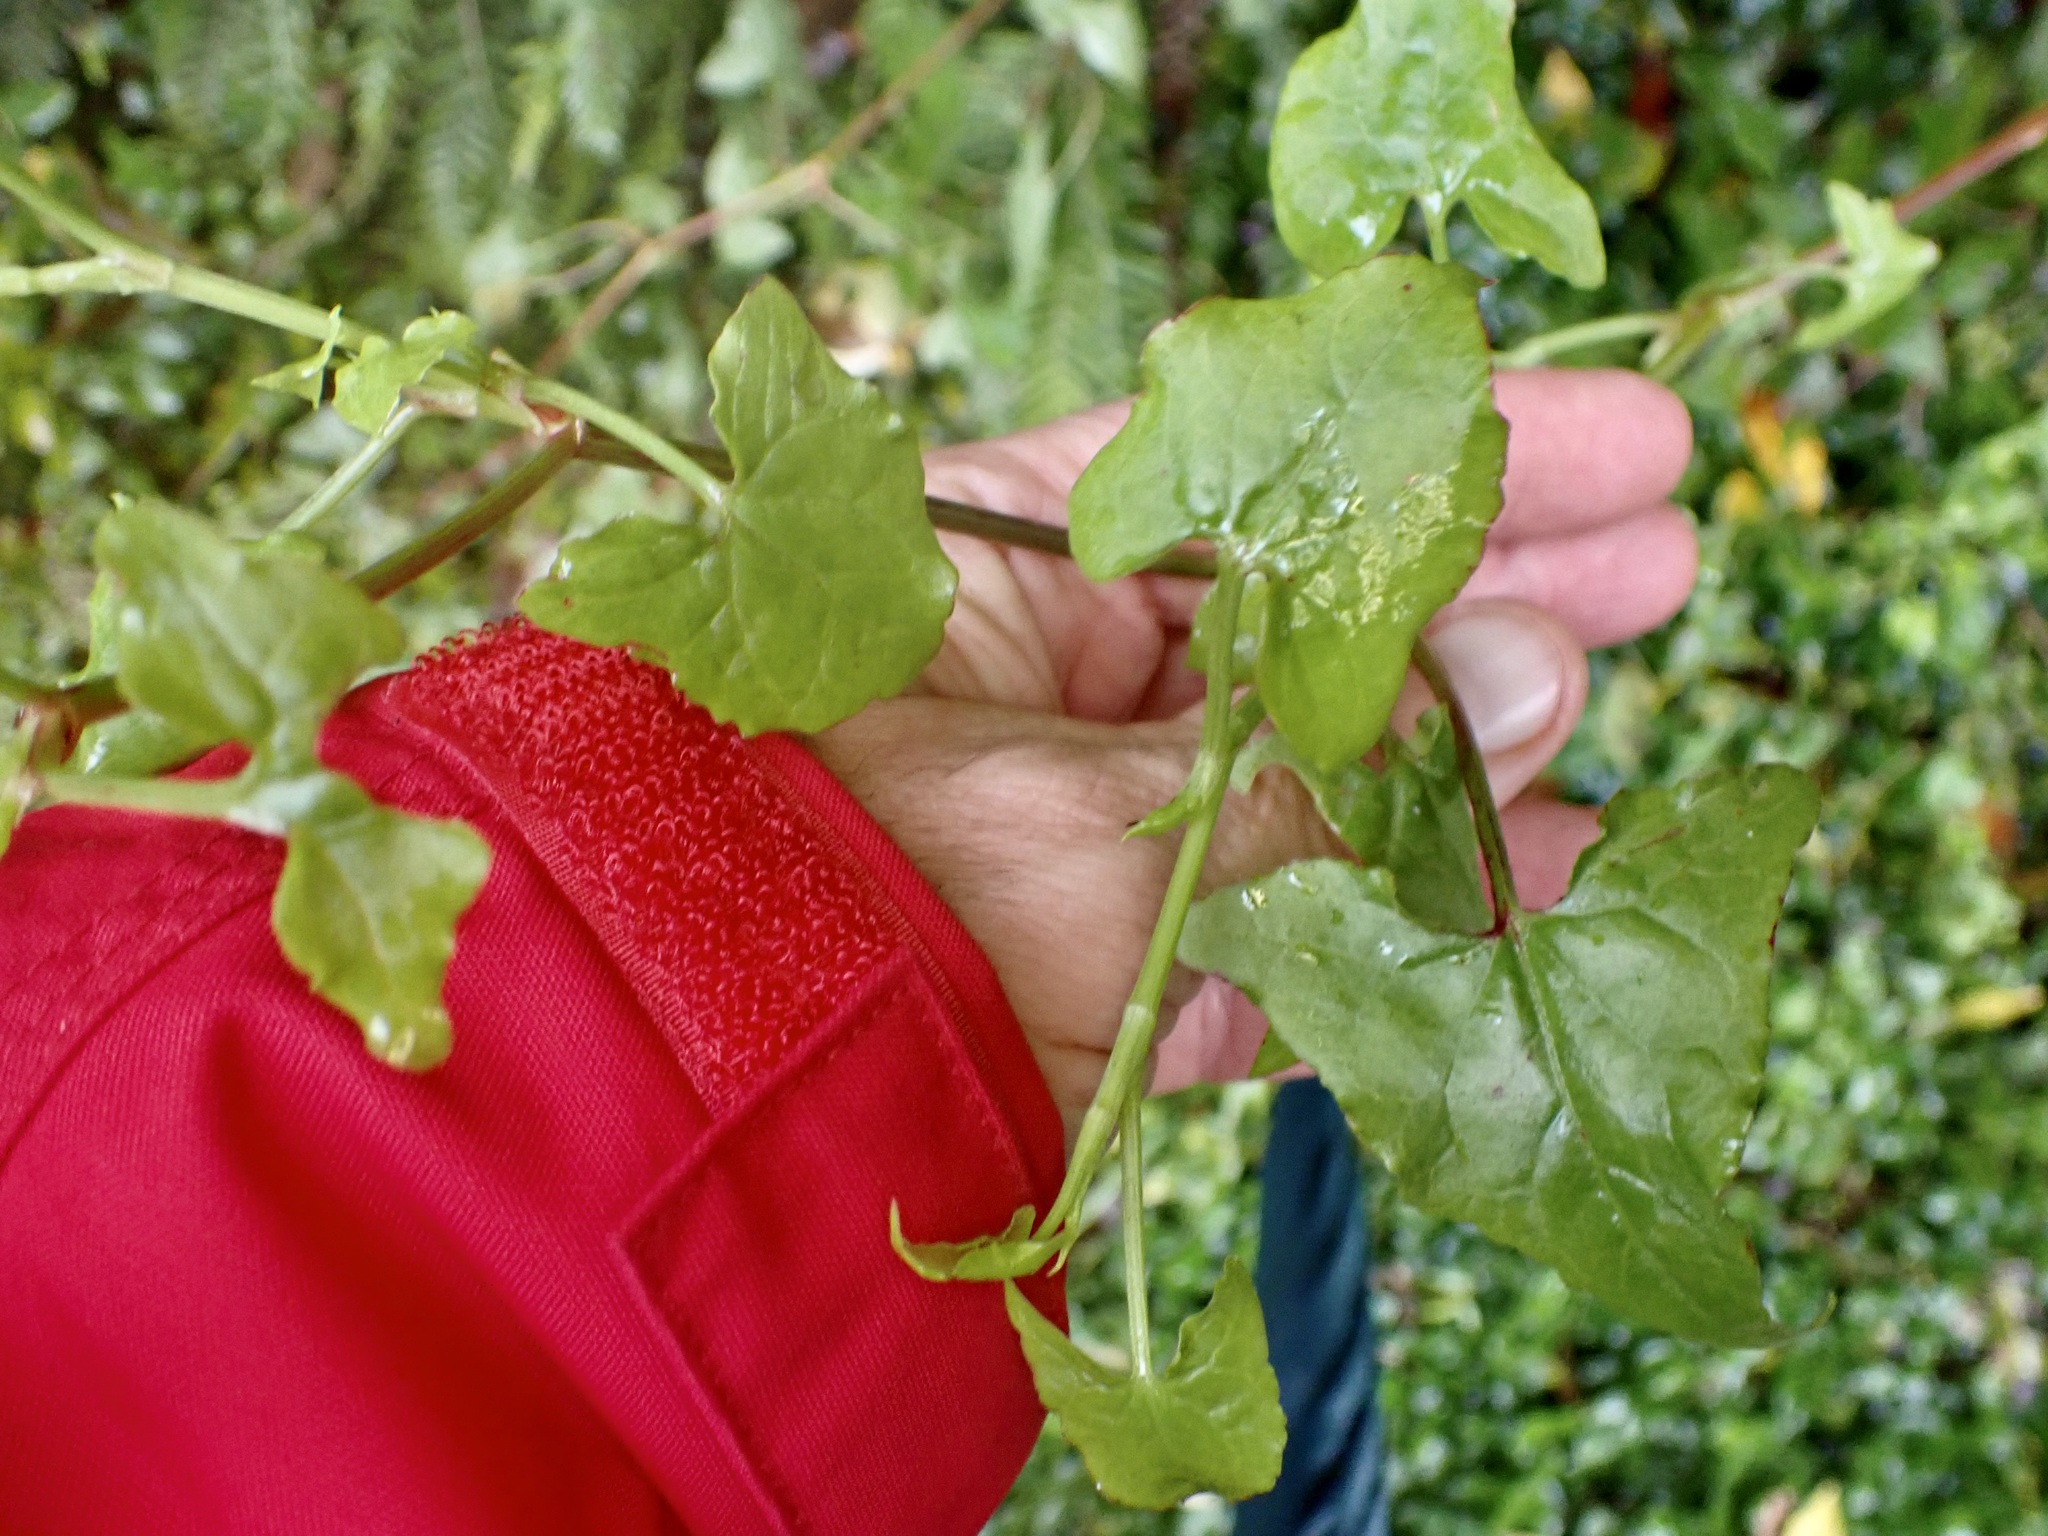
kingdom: Plantae
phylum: Tracheophyta
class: Magnoliopsida
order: Caryophyllales
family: Polygonaceae
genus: Rumex
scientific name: Rumex sagittatus
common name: Climbing dock
